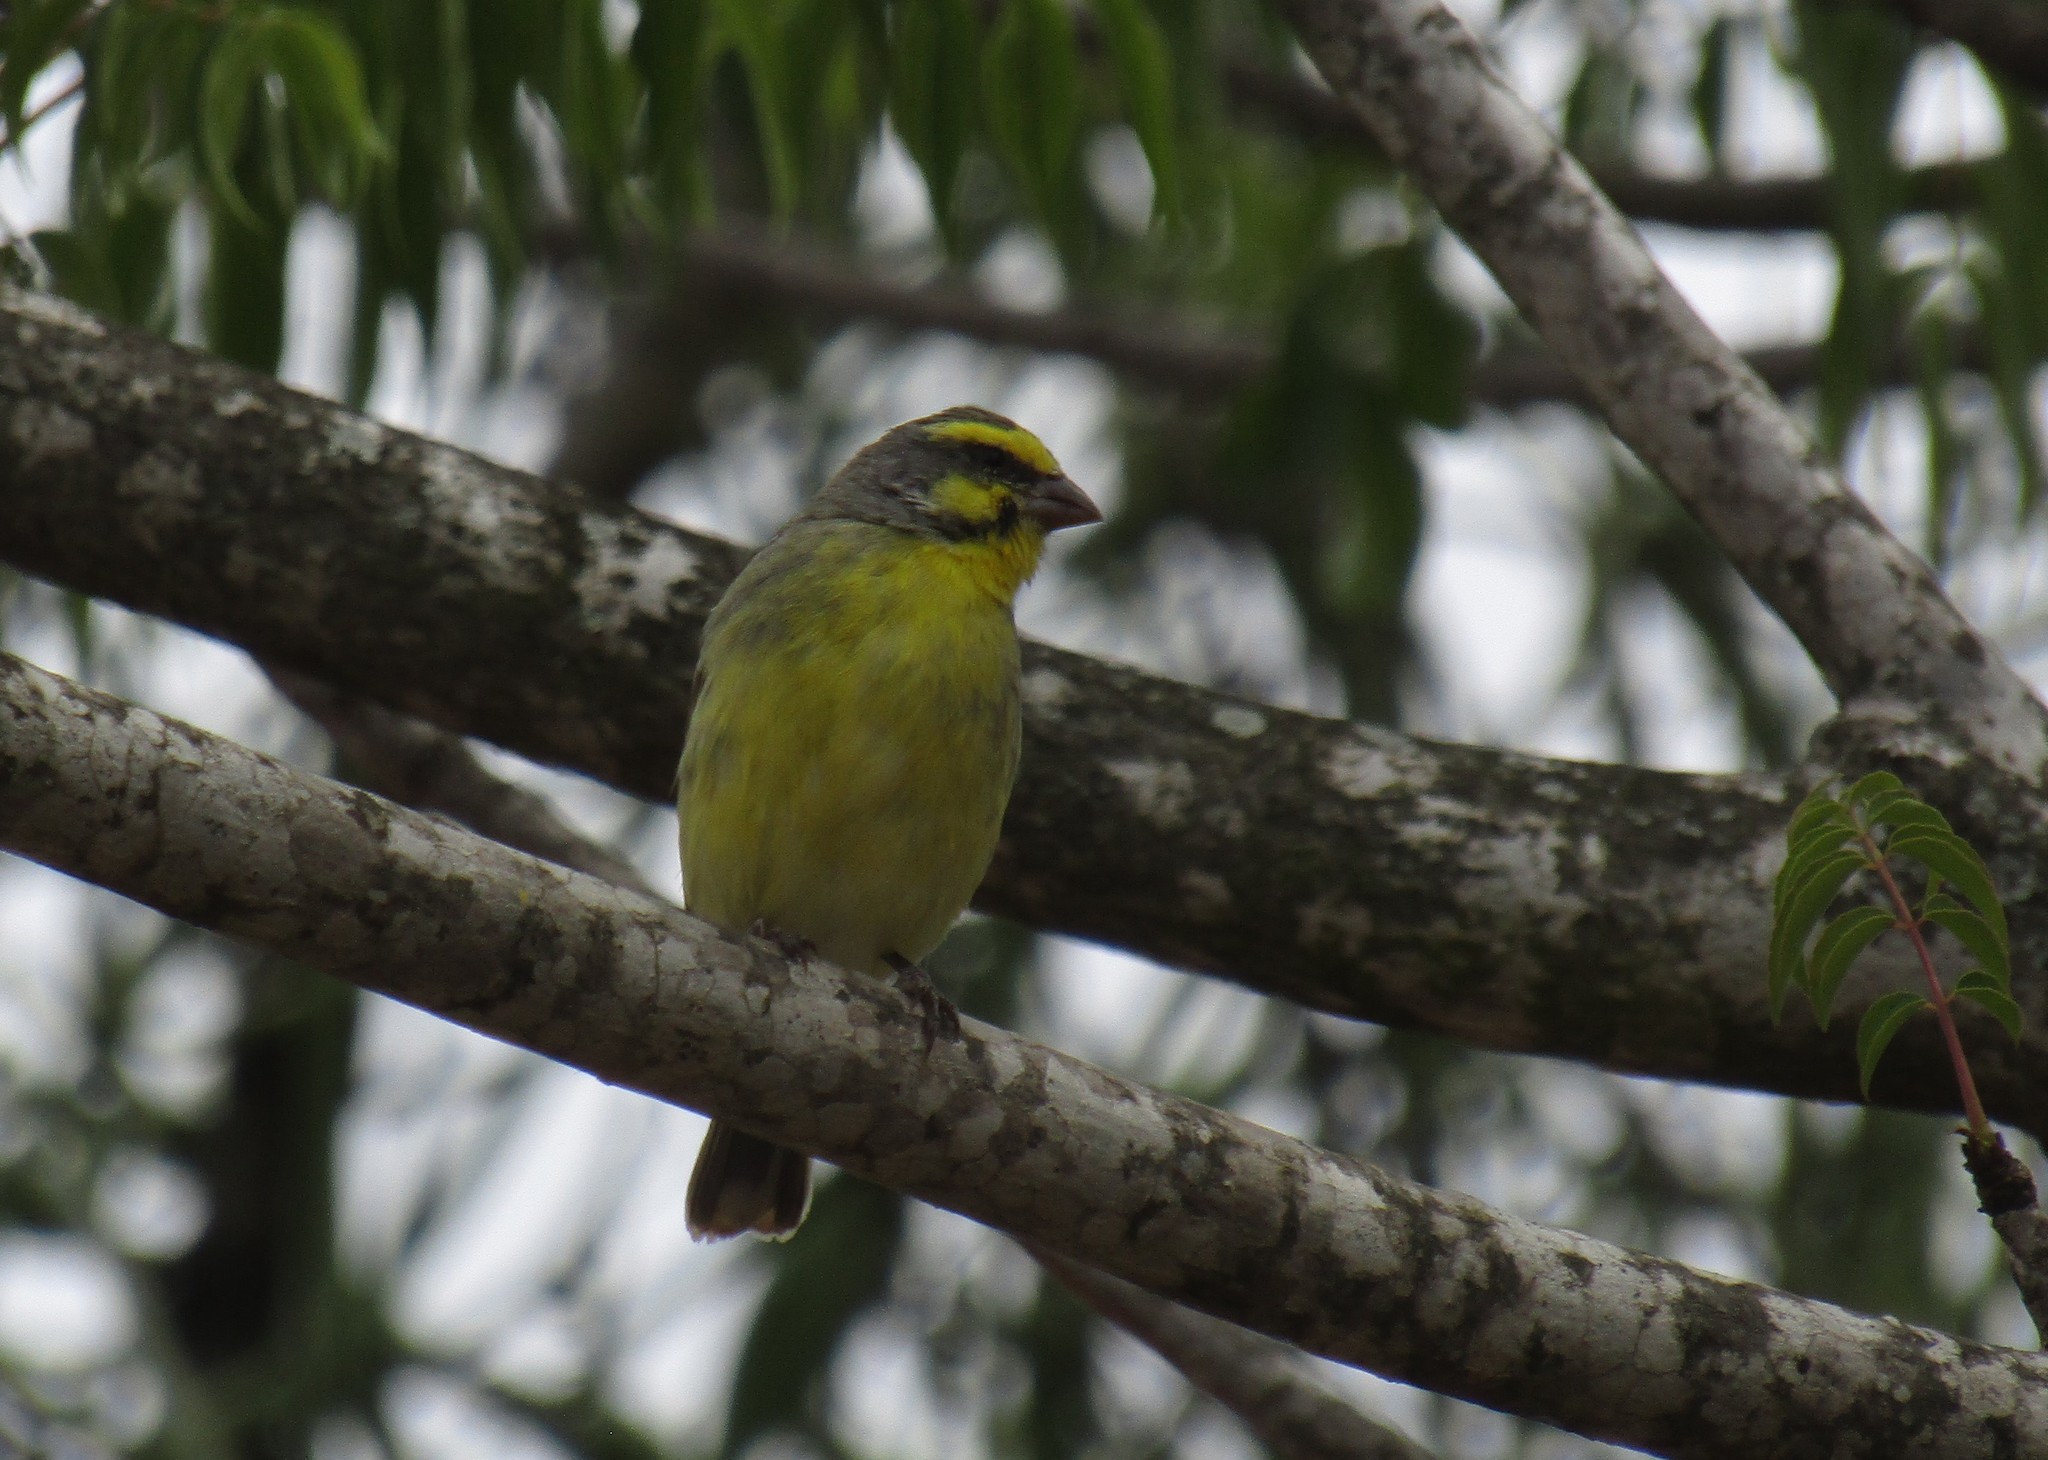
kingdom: Animalia
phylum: Chordata
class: Aves
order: Passeriformes
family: Fringillidae
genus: Crithagra
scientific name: Crithagra mozambica
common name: Yellow-fronted canary
